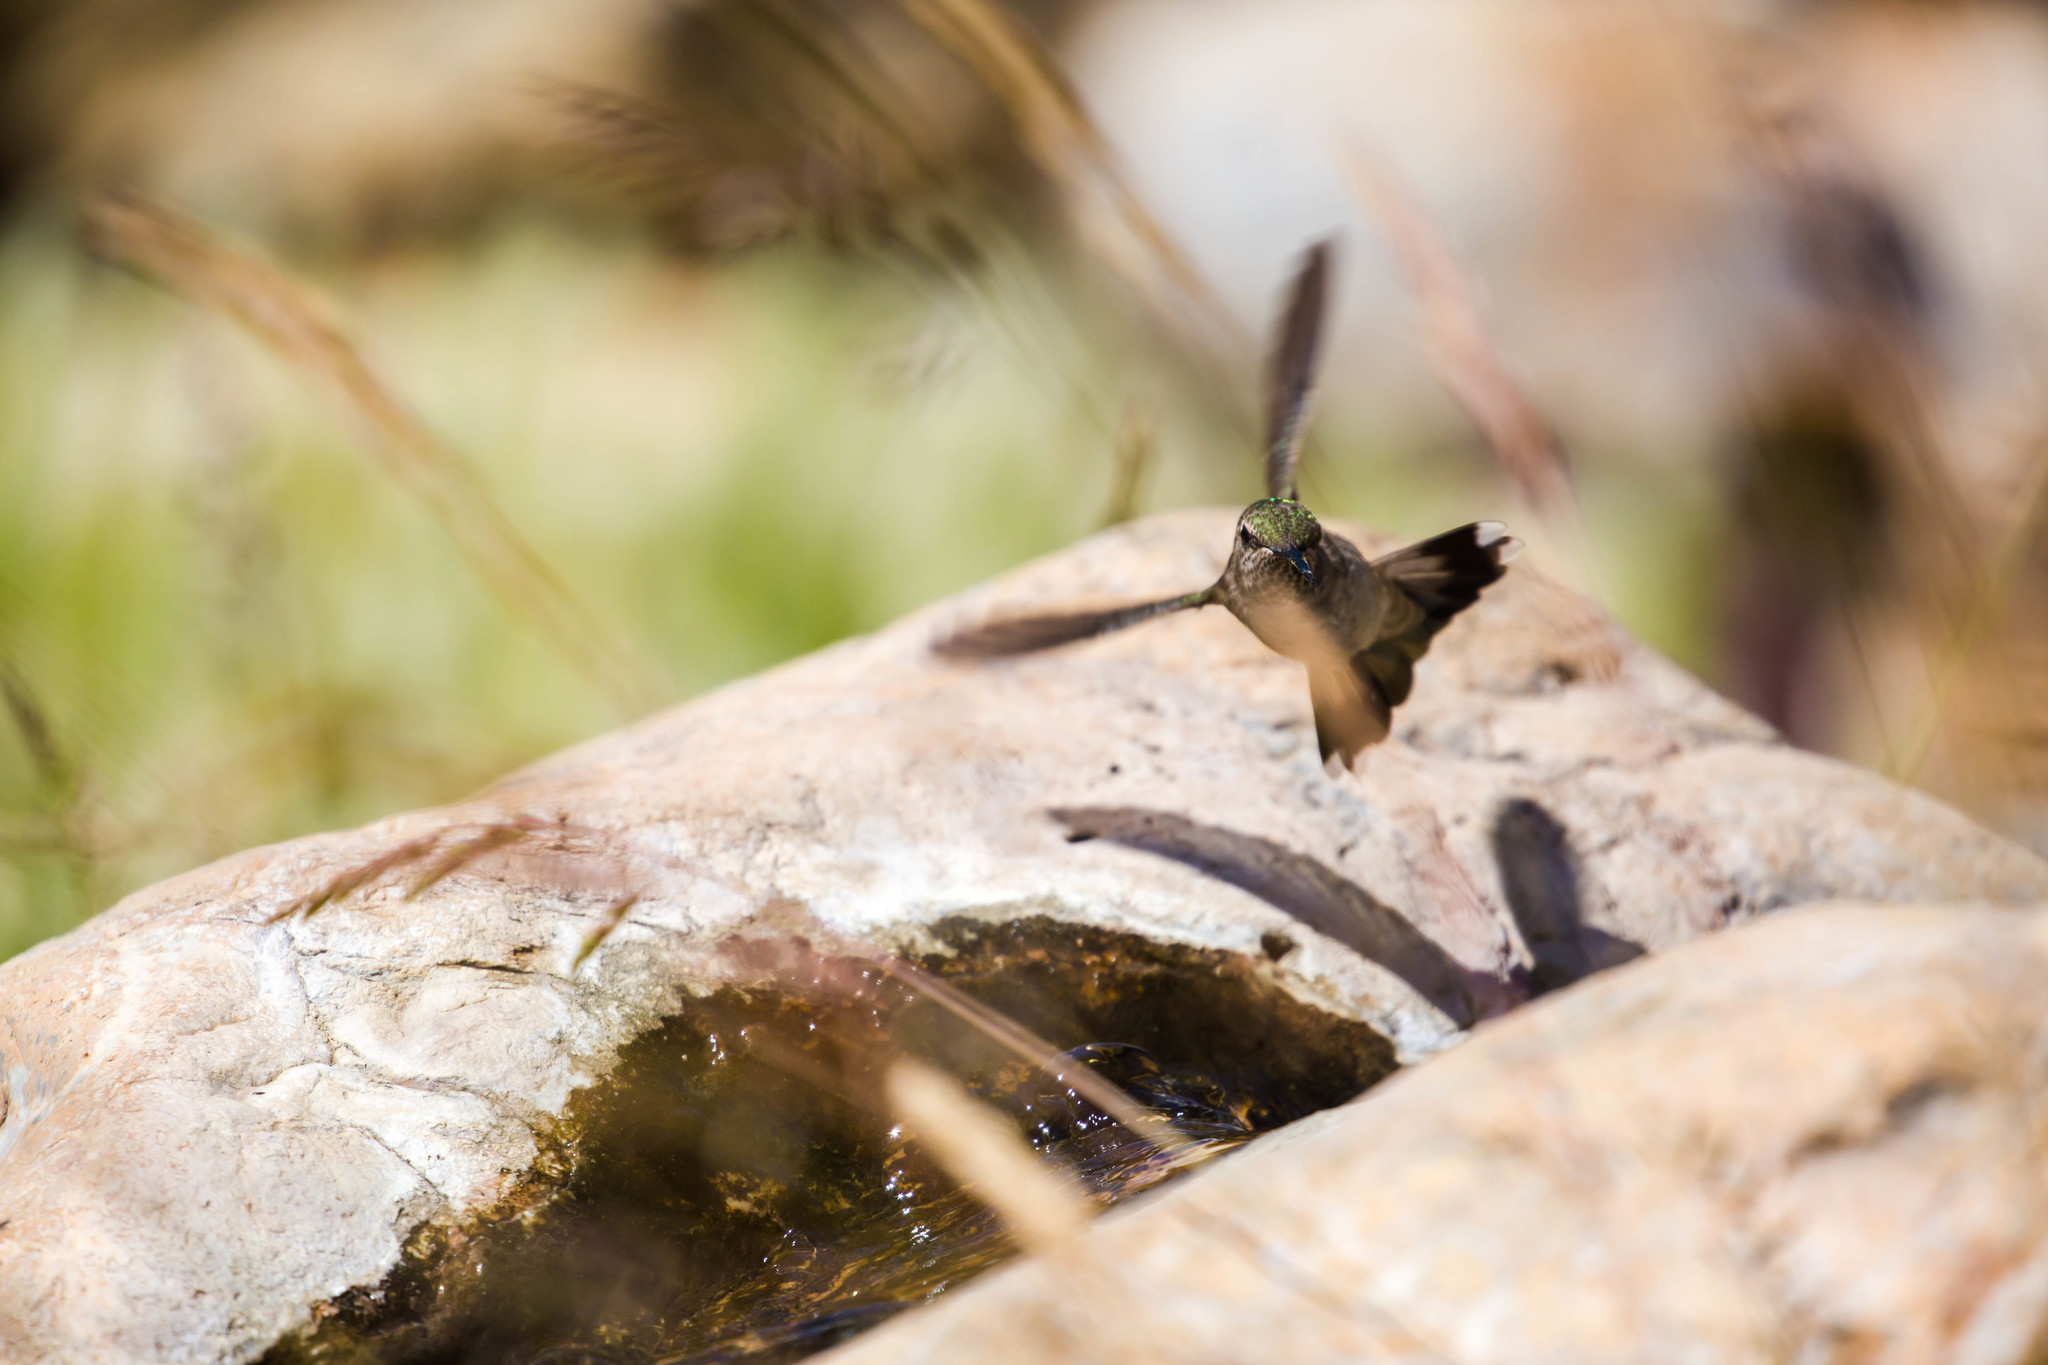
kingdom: Animalia
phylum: Chordata
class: Aves
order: Apodiformes
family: Trochilidae
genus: Calypte
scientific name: Calypte anna
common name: Anna's hummingbird
